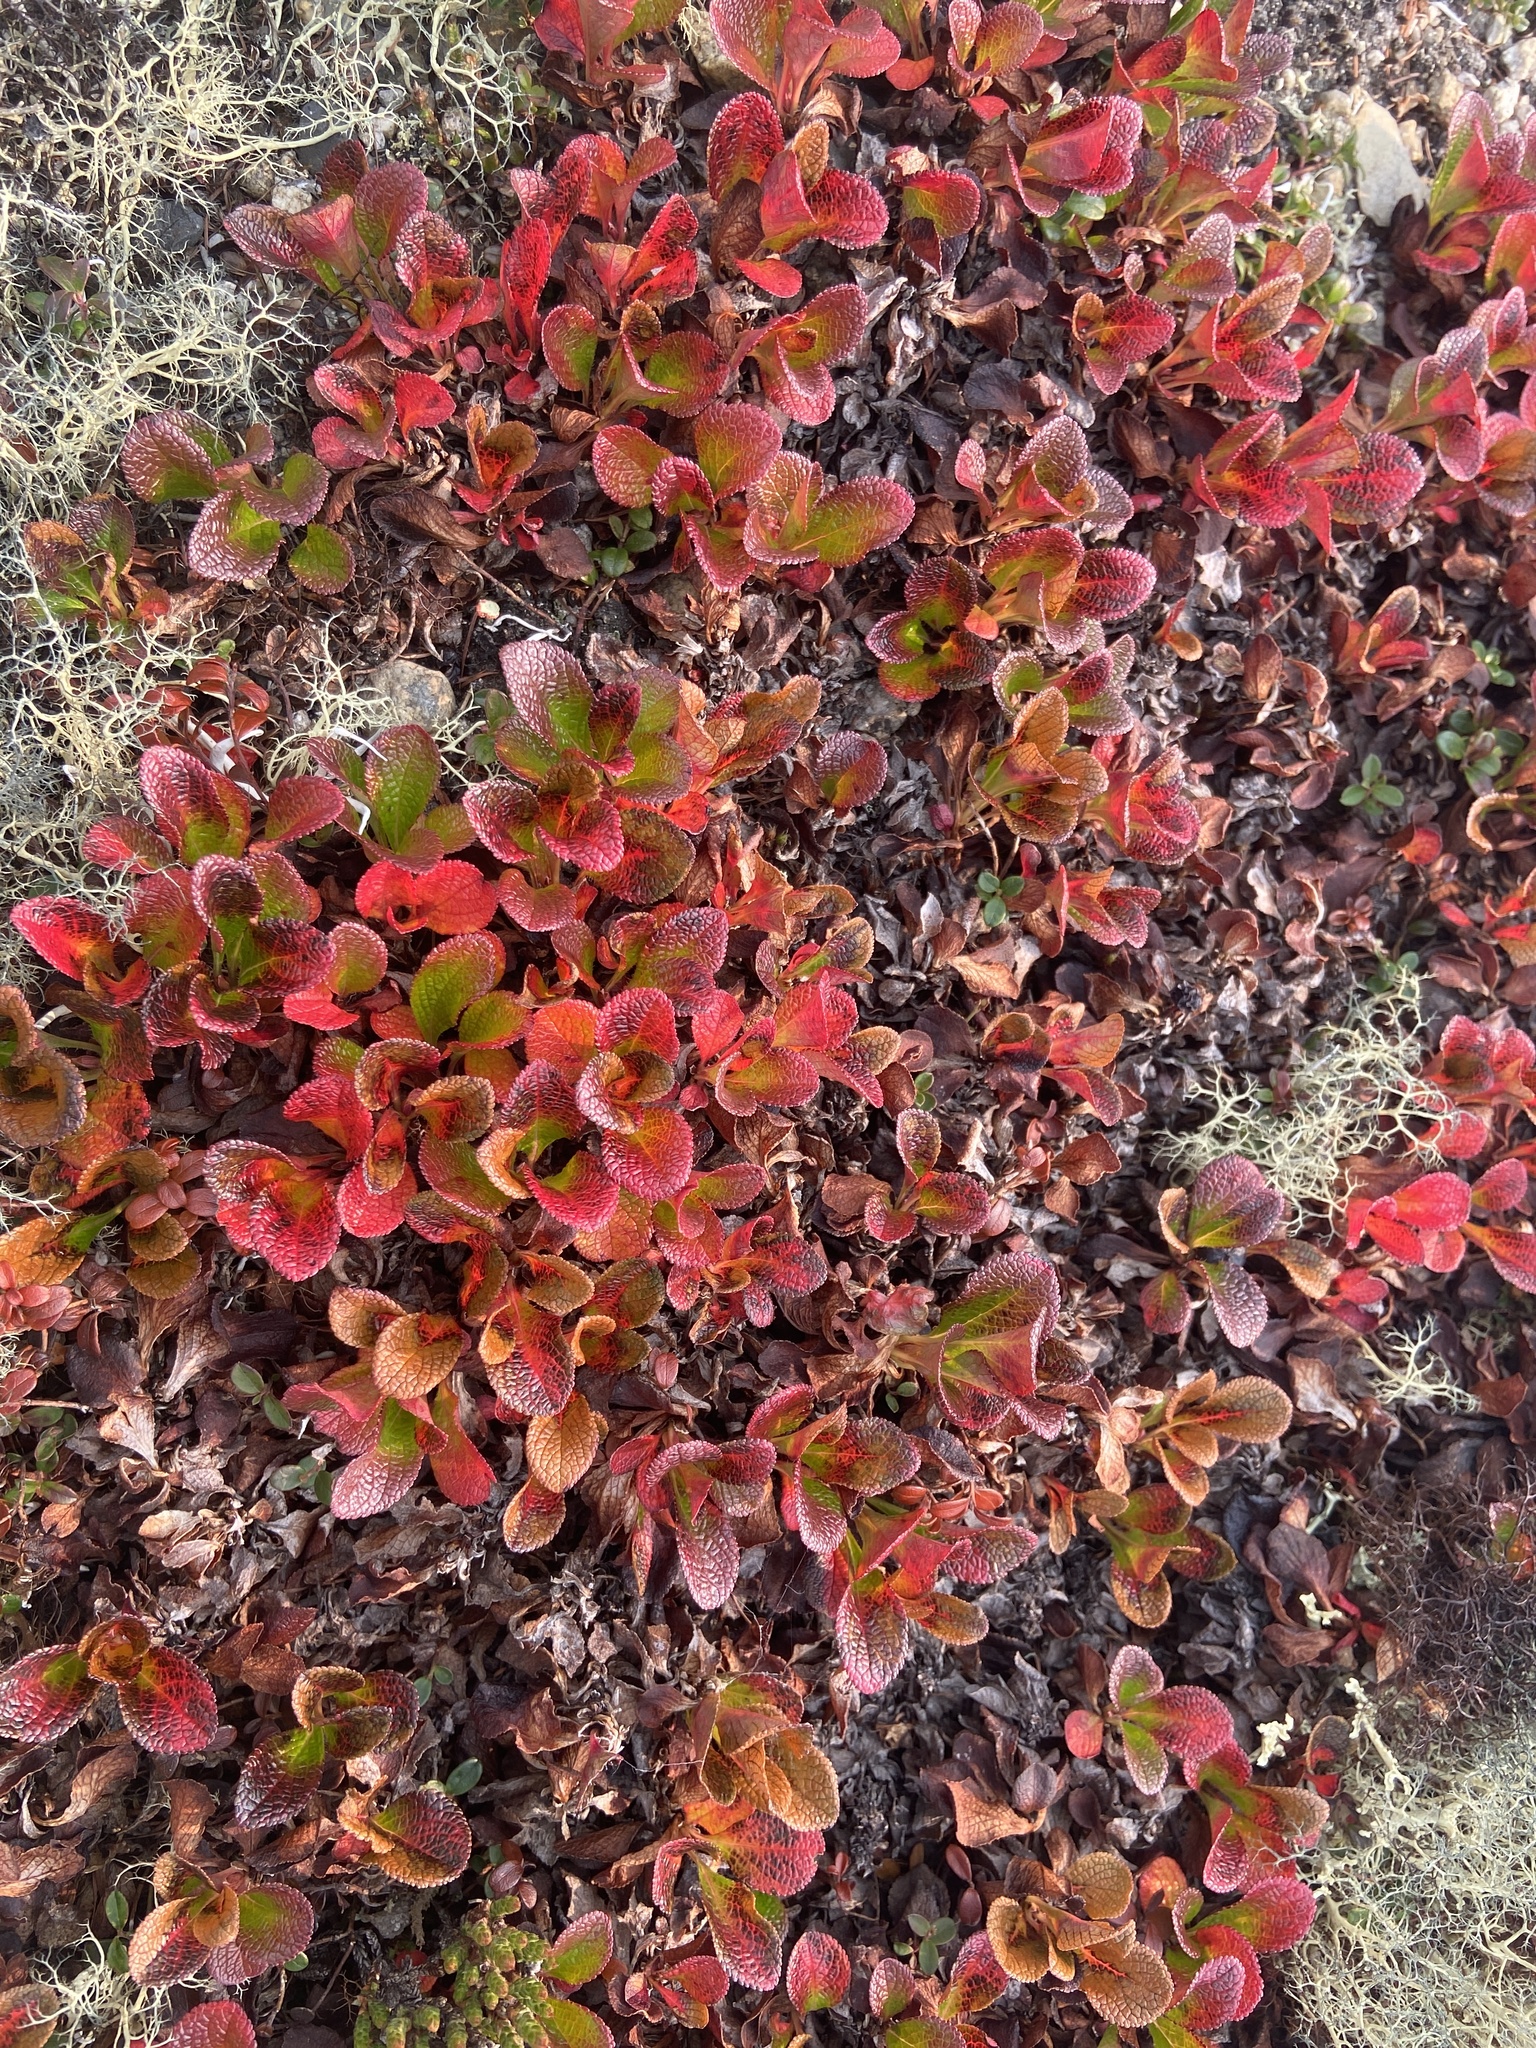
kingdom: Plantae
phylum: Tracheophyta
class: Magnoliopsida
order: Ericales
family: Ericaceae
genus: Arctostaphylos
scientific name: Arctostaphylos alpinus
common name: Alpine bearberry
